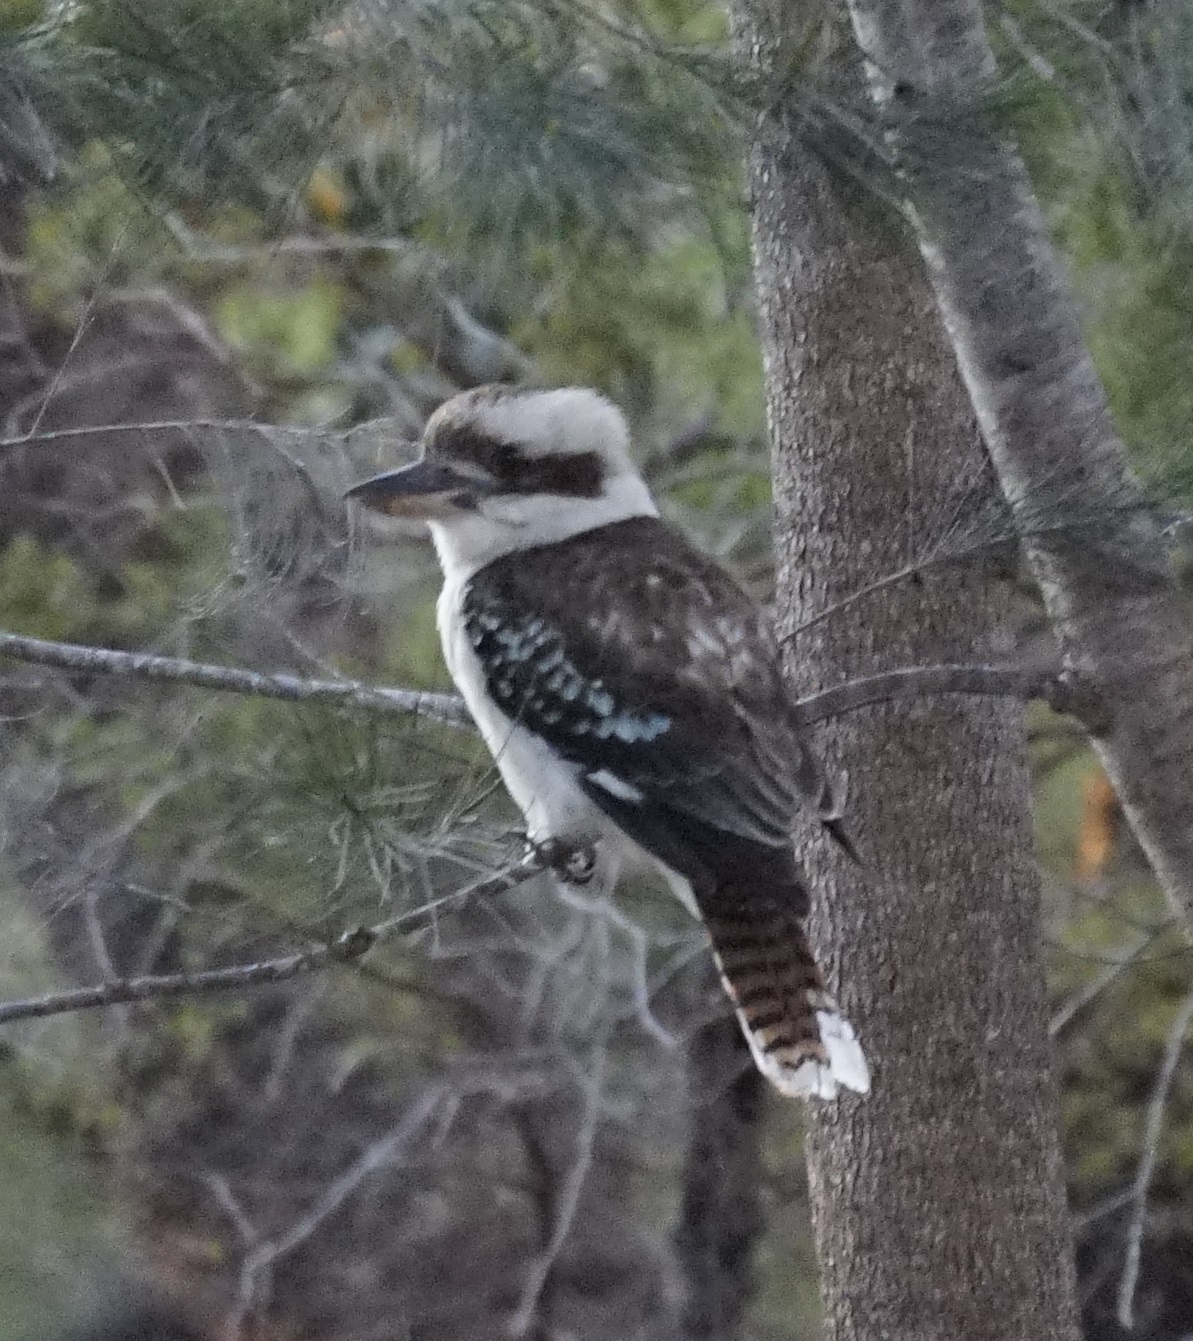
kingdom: Animalia
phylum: Chordata
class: Aves
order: Coraciiformes
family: Alcedinidae
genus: Dacelo
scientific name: Dacelo novaeguineae
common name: Laughing kookaburra
